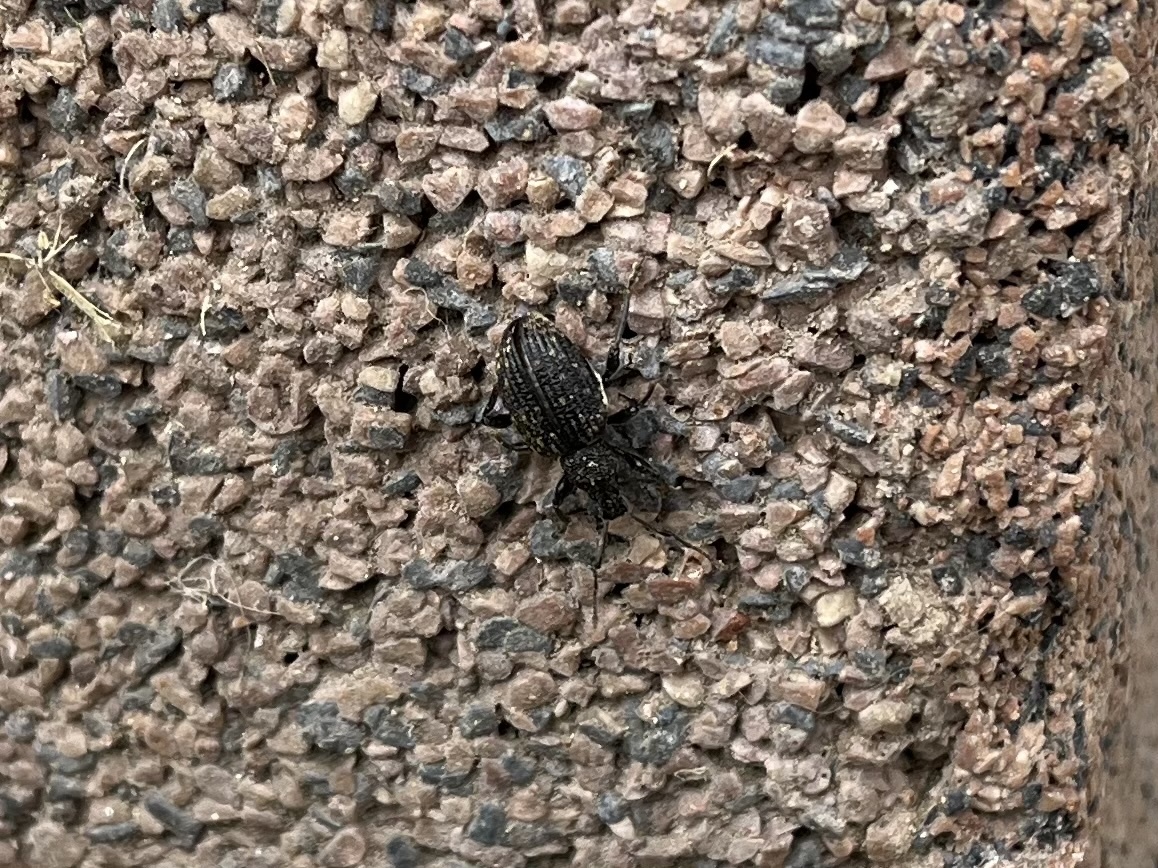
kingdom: Animalia
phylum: Arthropoda
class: Insecta
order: Coleoptera
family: Curculionidae
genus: Otiorhynchus
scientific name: Otiorhynchus sulcatus
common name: Black vine weevil
